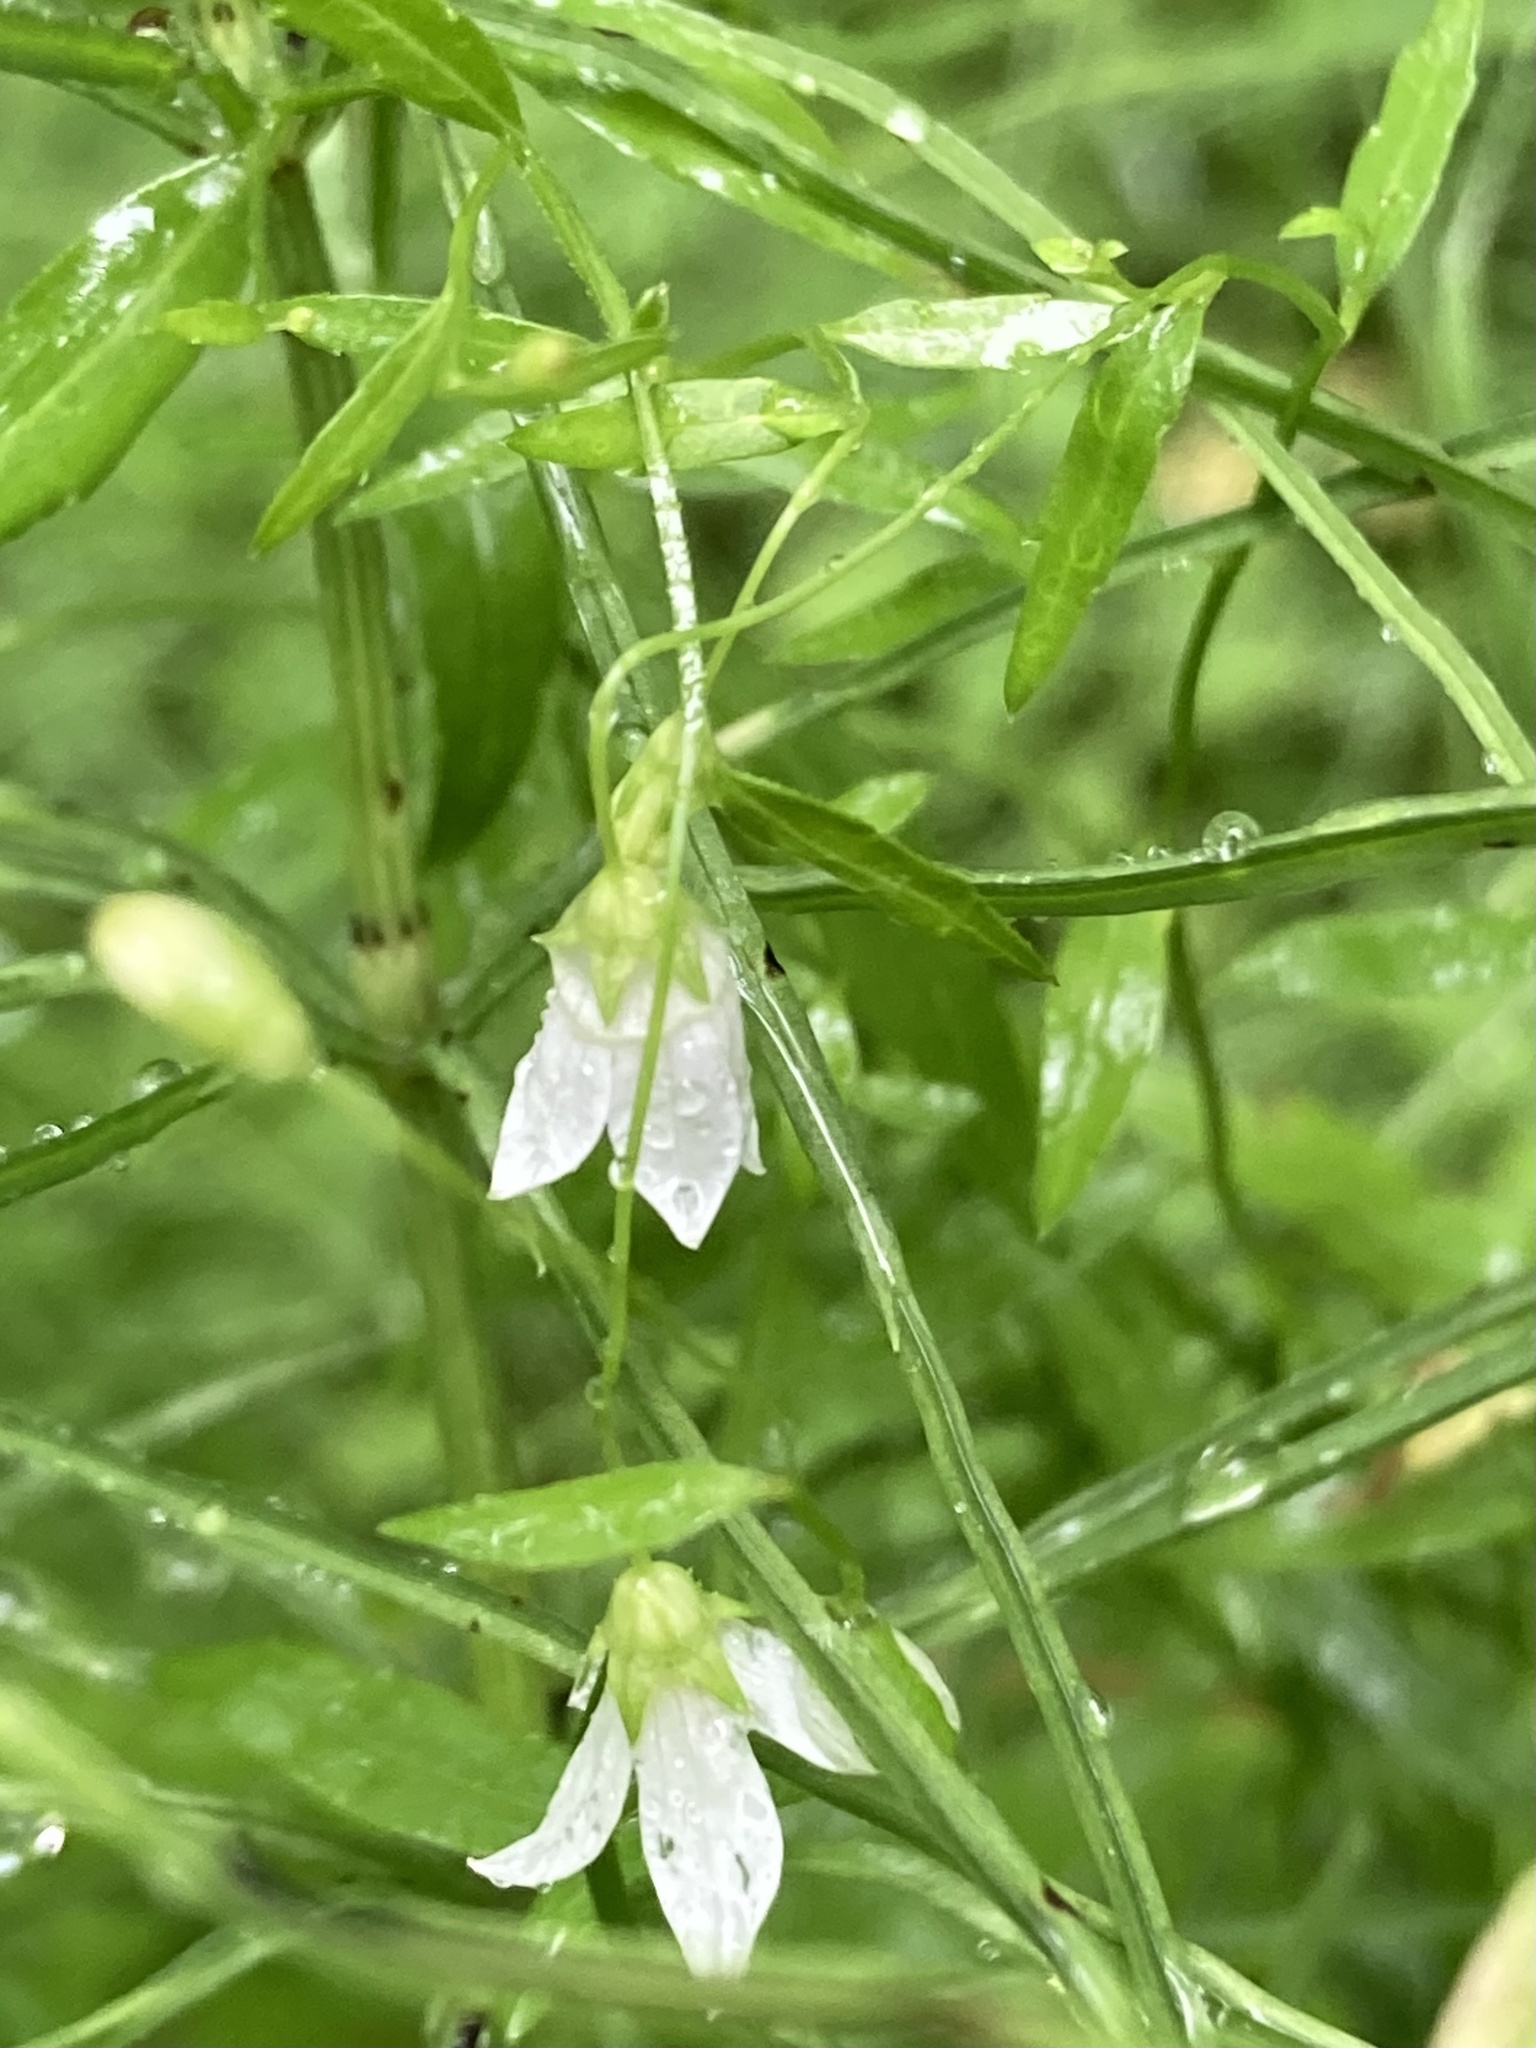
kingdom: Plantae
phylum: Tracheophyta
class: Magnoliopsida
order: Asterales
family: Campanulaceae
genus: Palustricodon
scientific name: Palustricodon aparinoides
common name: Bedstraw bellflower
